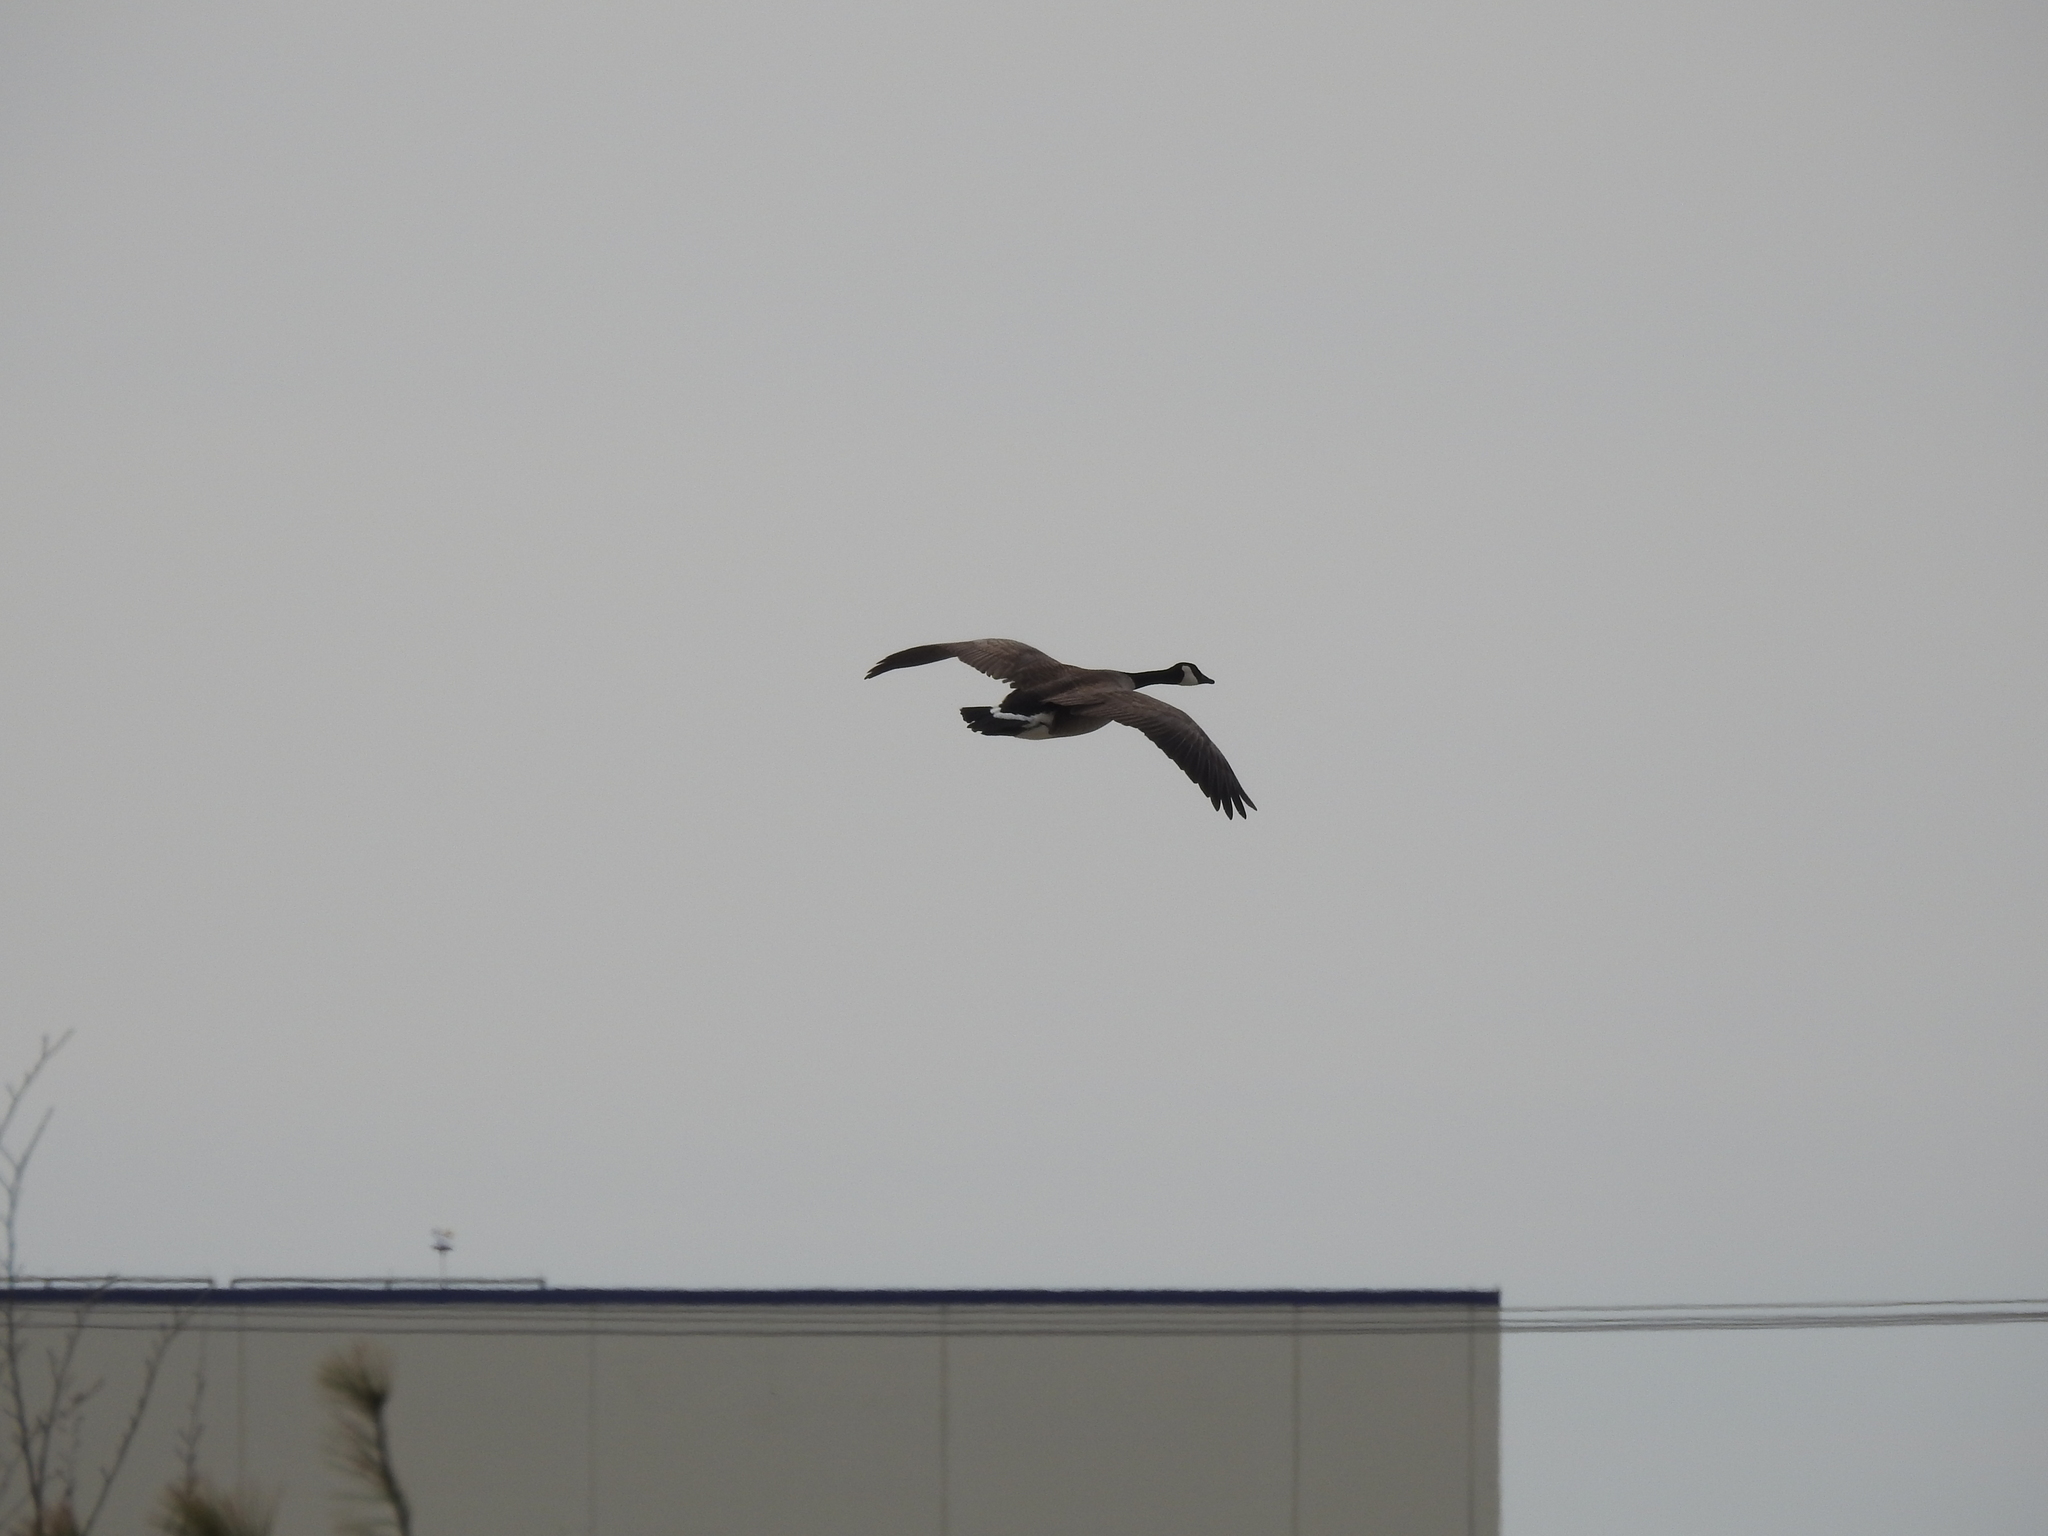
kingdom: Animalia
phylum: Chordata
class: Aves
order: Anseriformes
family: Anatidae
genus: Branta
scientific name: Branta canadensis
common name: Canada goose
